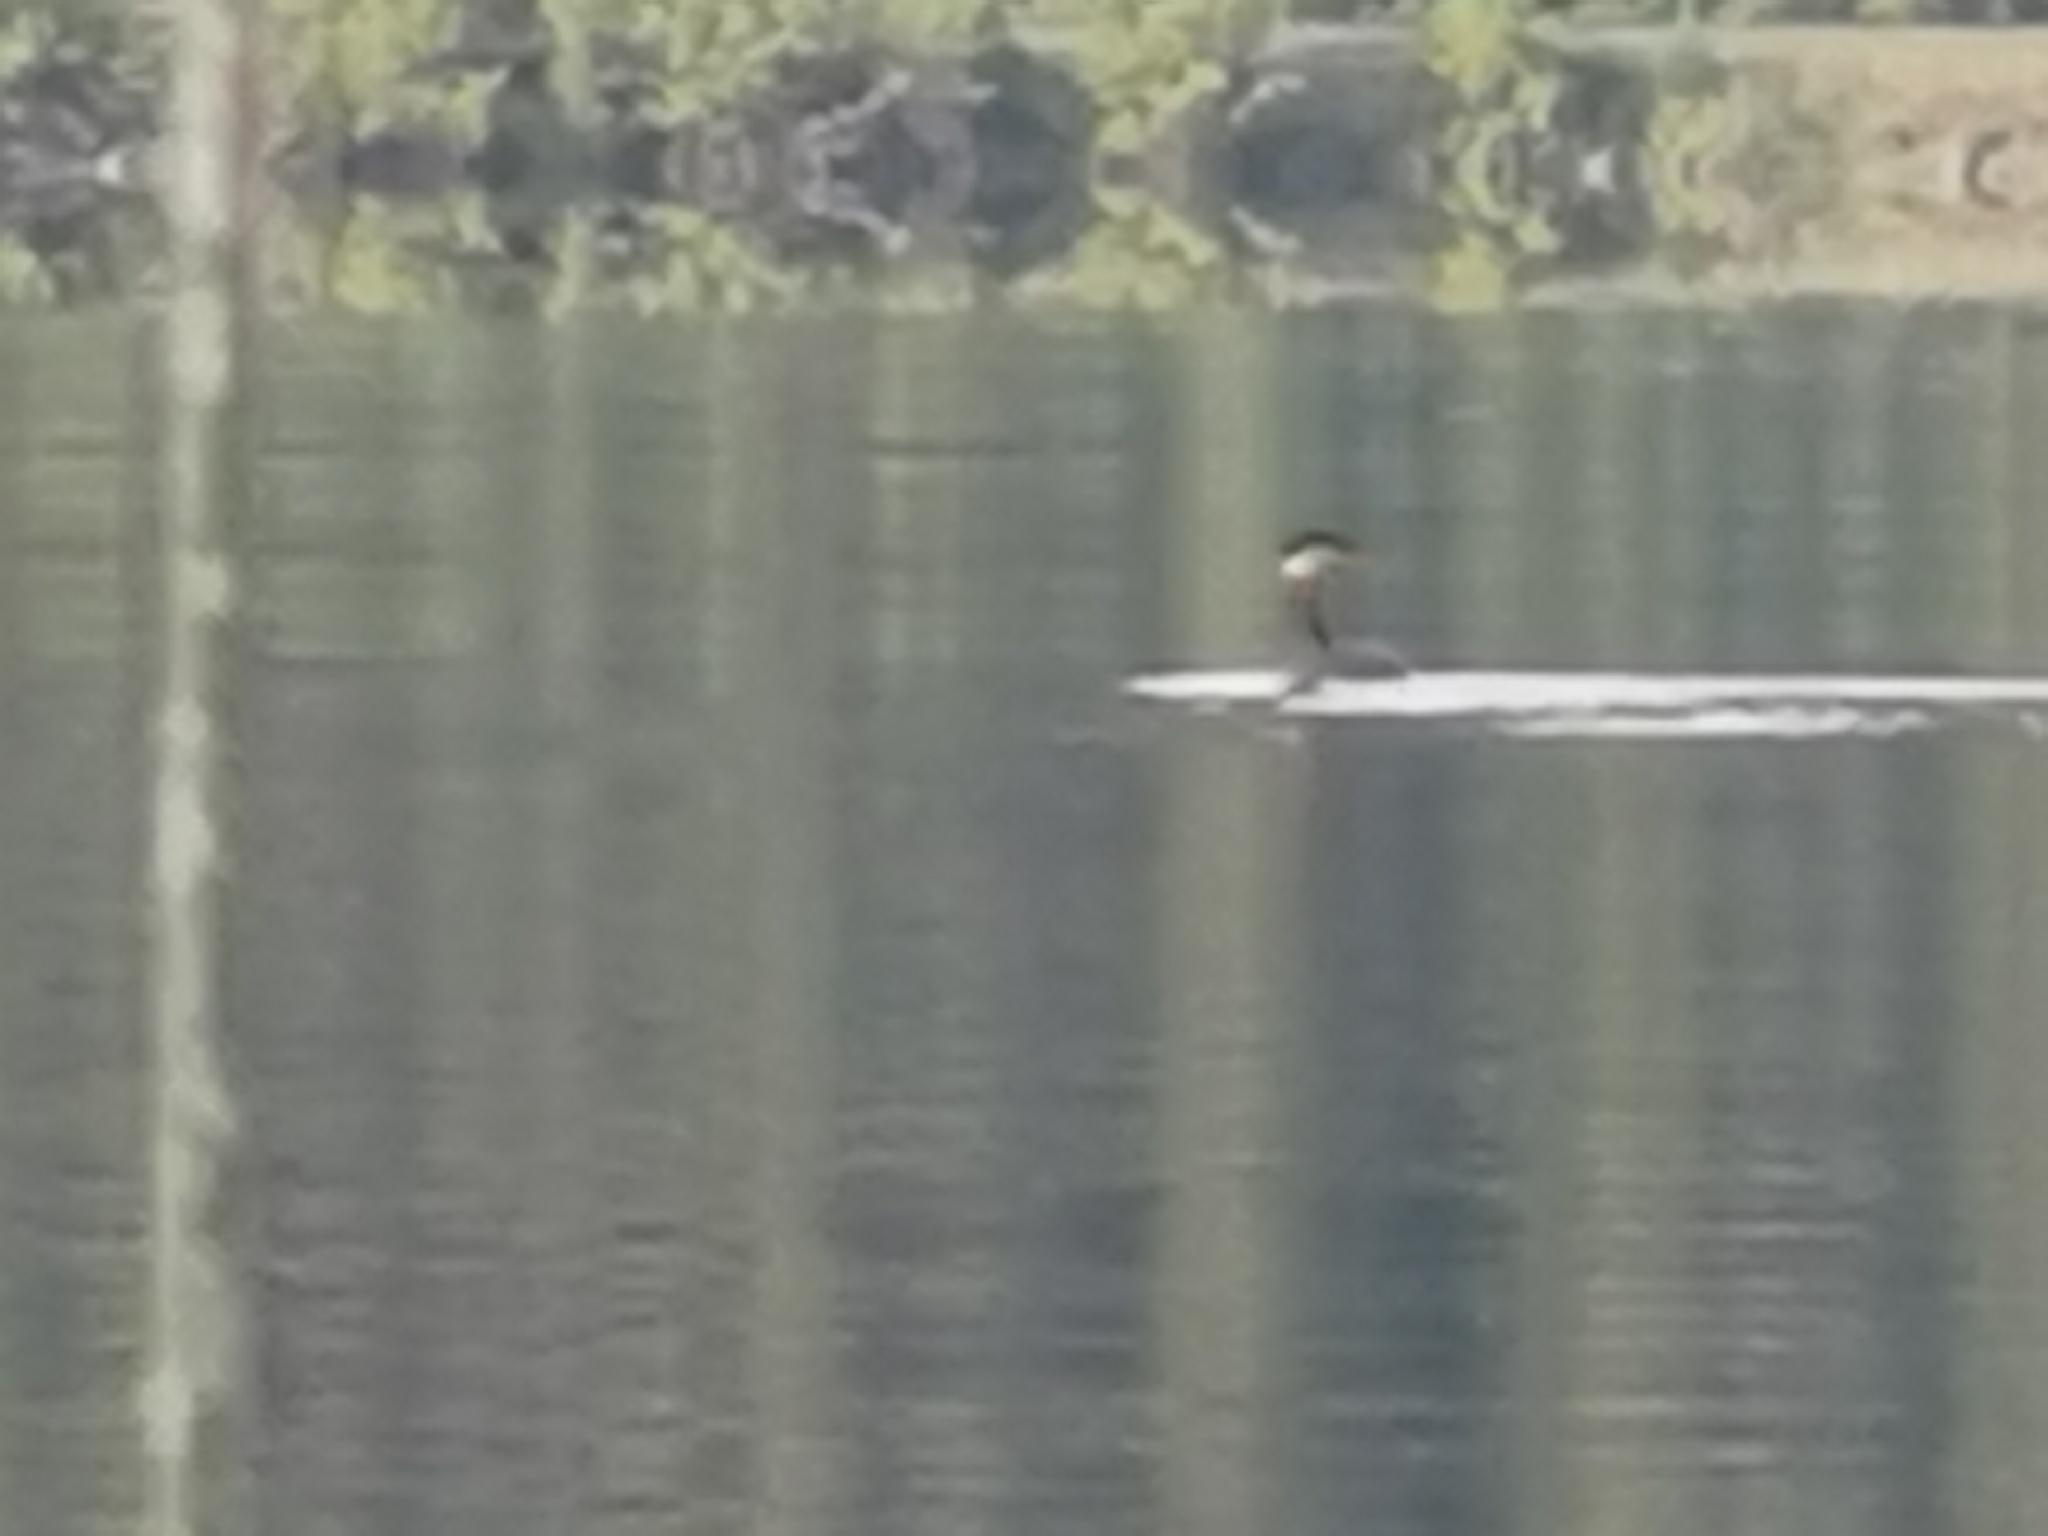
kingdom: Animalia
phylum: Chordata
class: Aves
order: Podicipediformes
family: Podicipedidae
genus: Podiceps
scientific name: Podiceps grisegena
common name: Red-necked grebe
